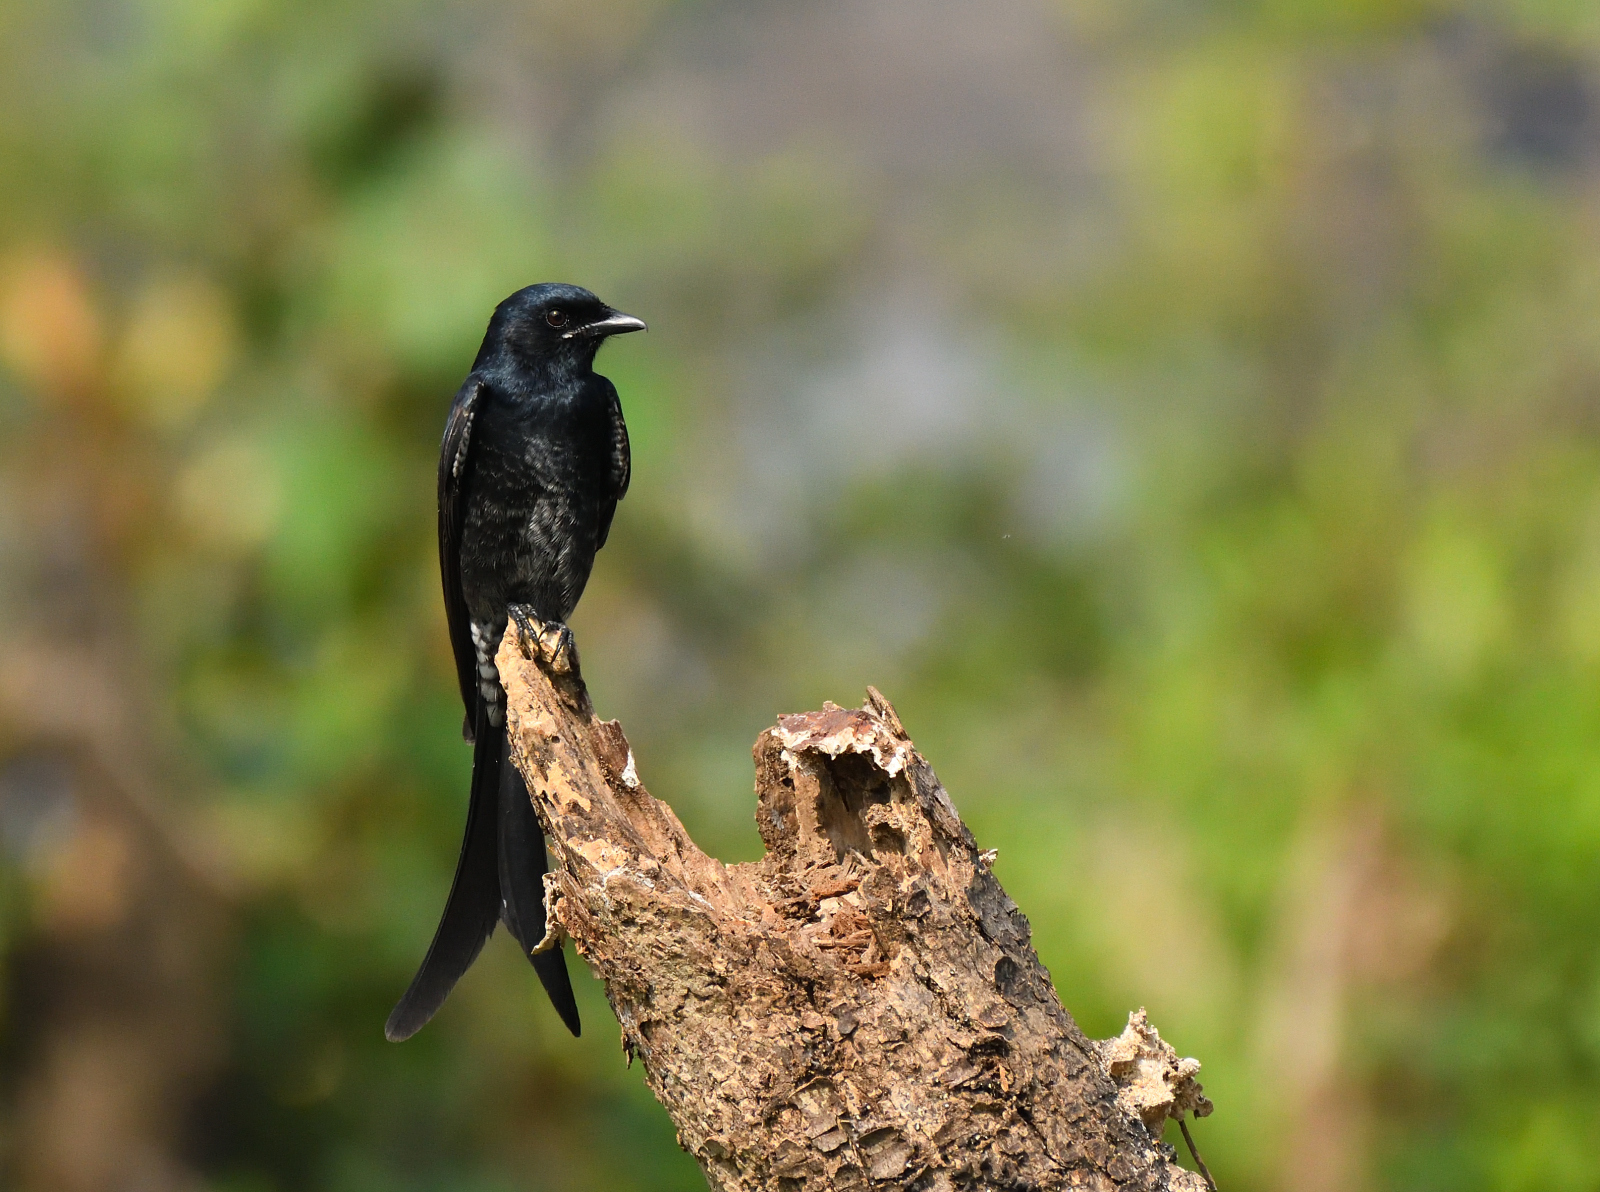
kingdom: Animalia
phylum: Chordata
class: Aves
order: Passeriformes
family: Dicruridae
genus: Dicrurus
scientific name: Dicrurus macrocercus
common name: Black drongo
